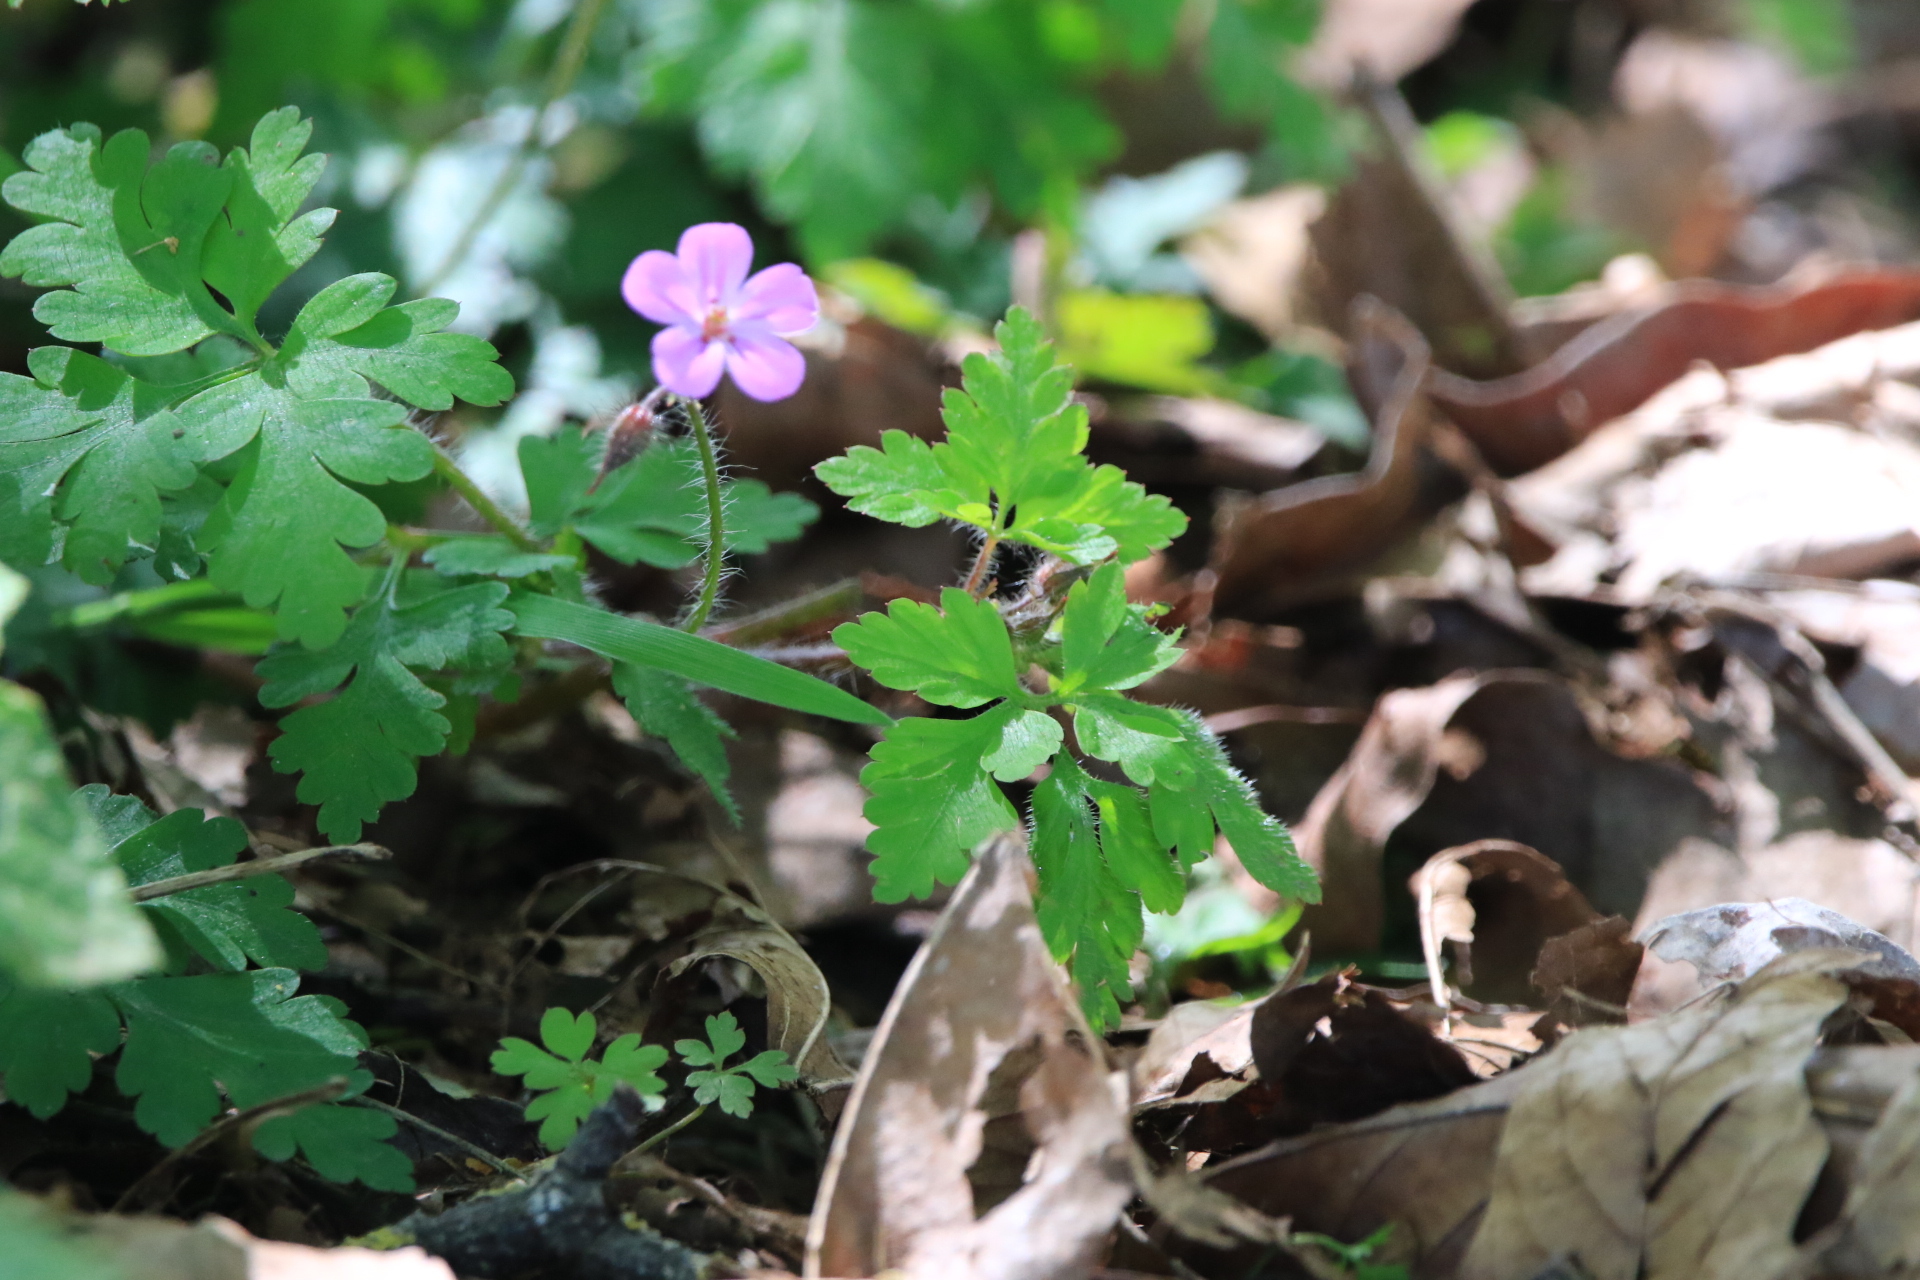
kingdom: Plantae
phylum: Tracheophyta
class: Magnoliopsida
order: Geraniales
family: Geraniaceae
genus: Geranium
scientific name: Geranium robertianum
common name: Herb-robert
